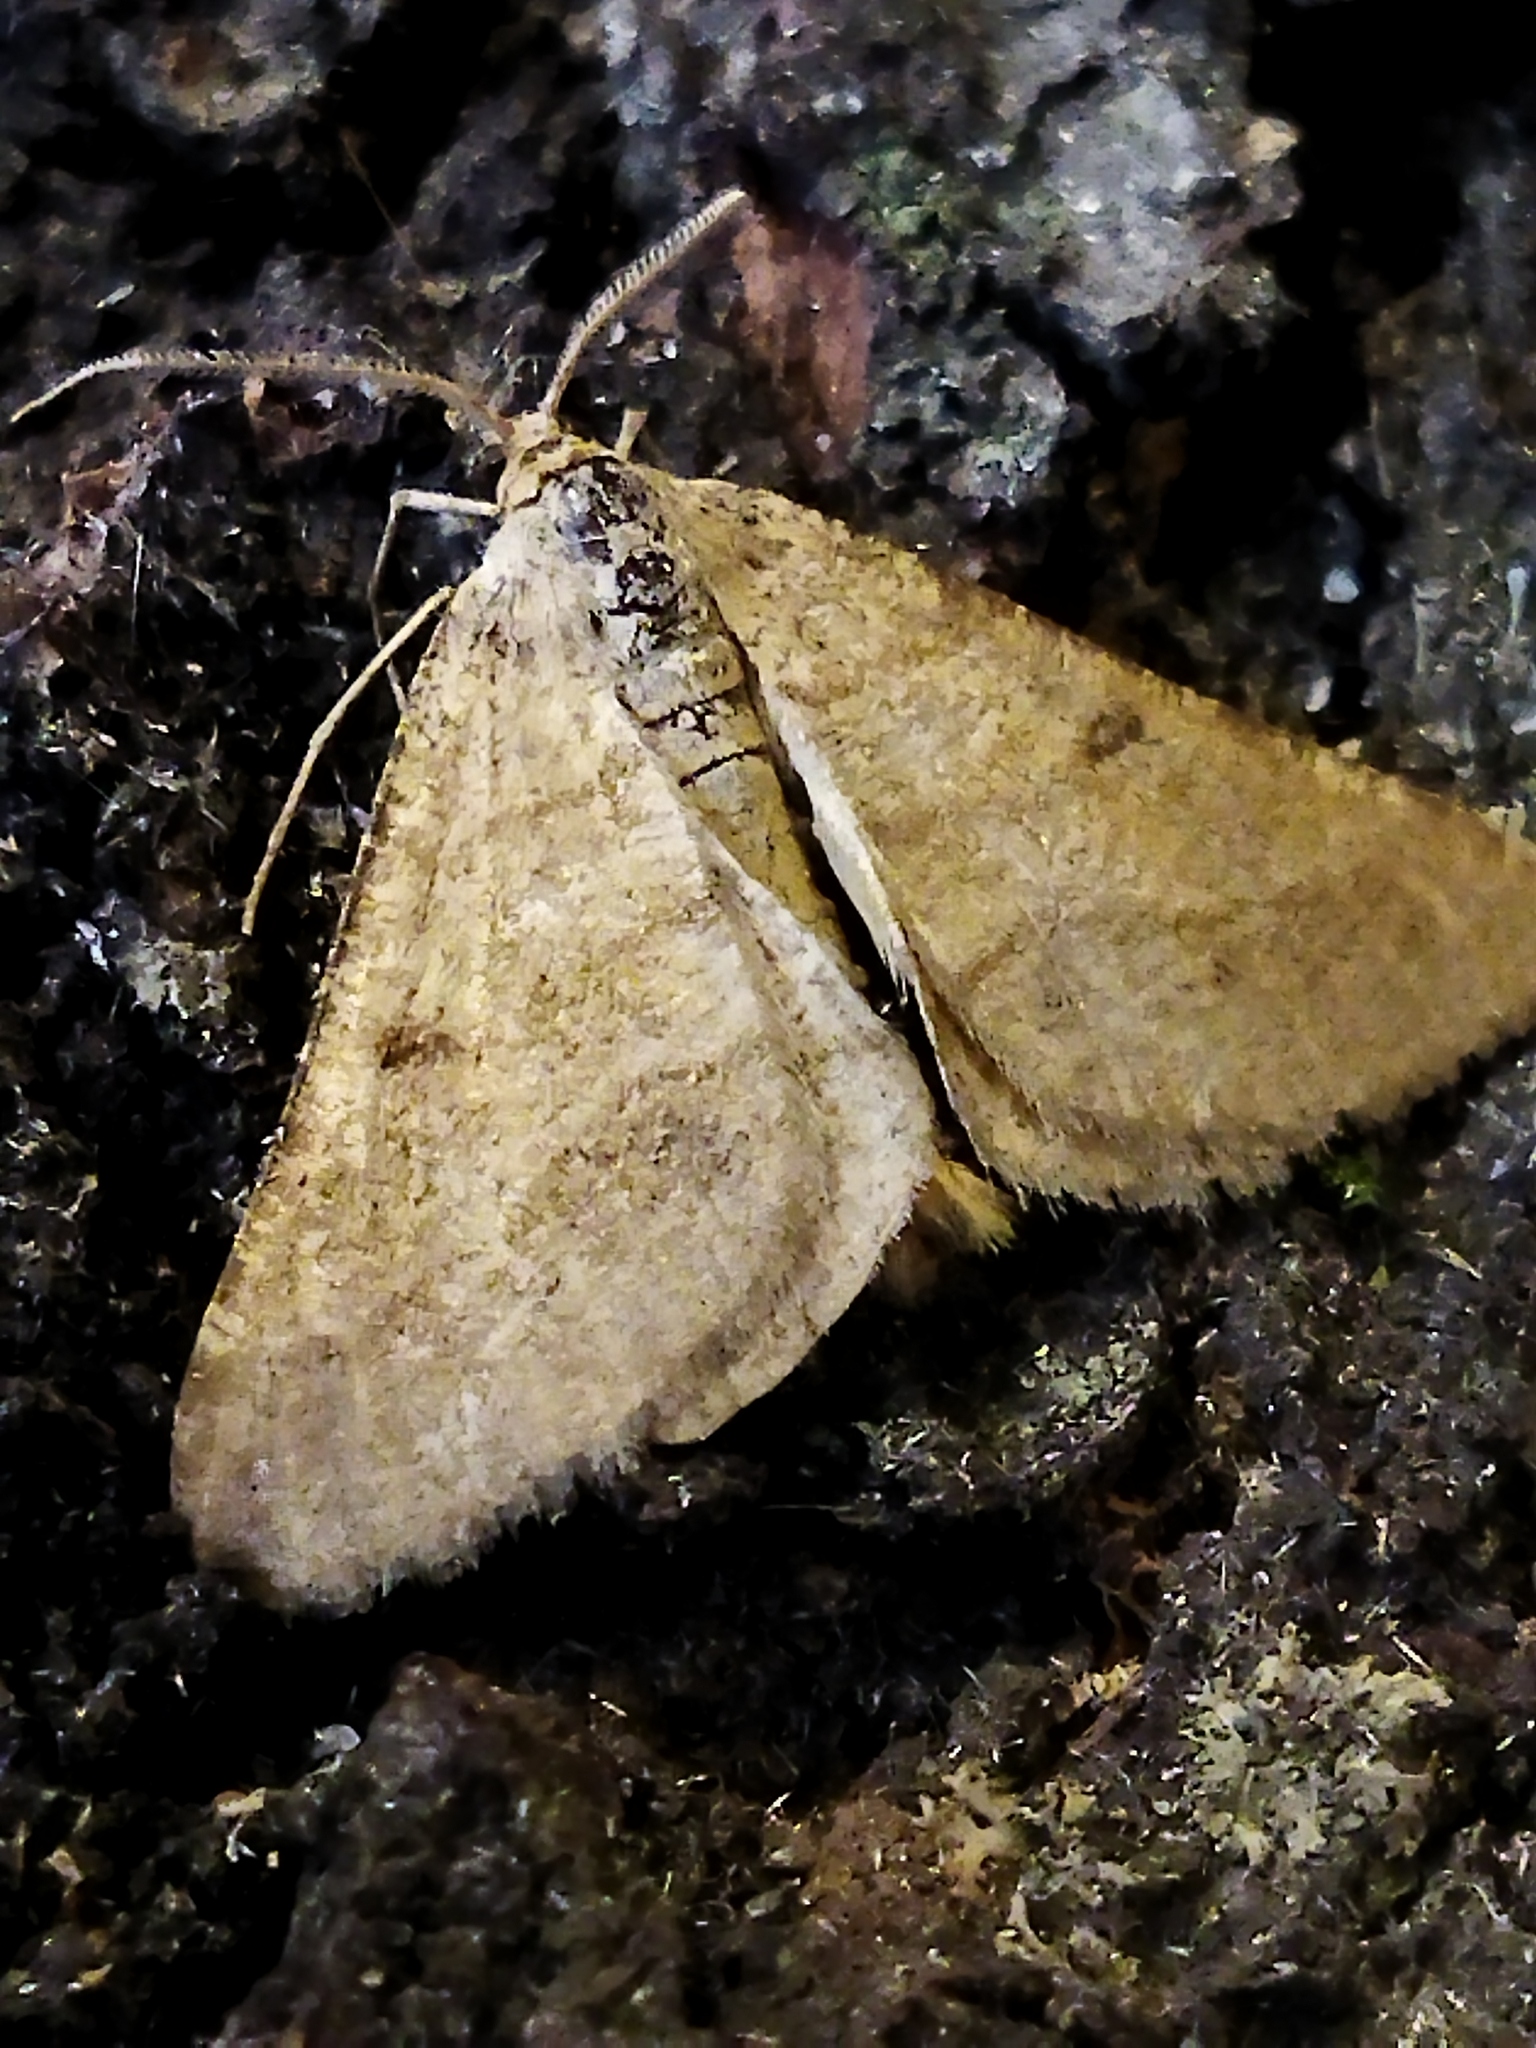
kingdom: Animalia
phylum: Arthropoda
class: Insecta
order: Lepidoptera
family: Geometridae
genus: Tephrina
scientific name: Tephrina murinaria
